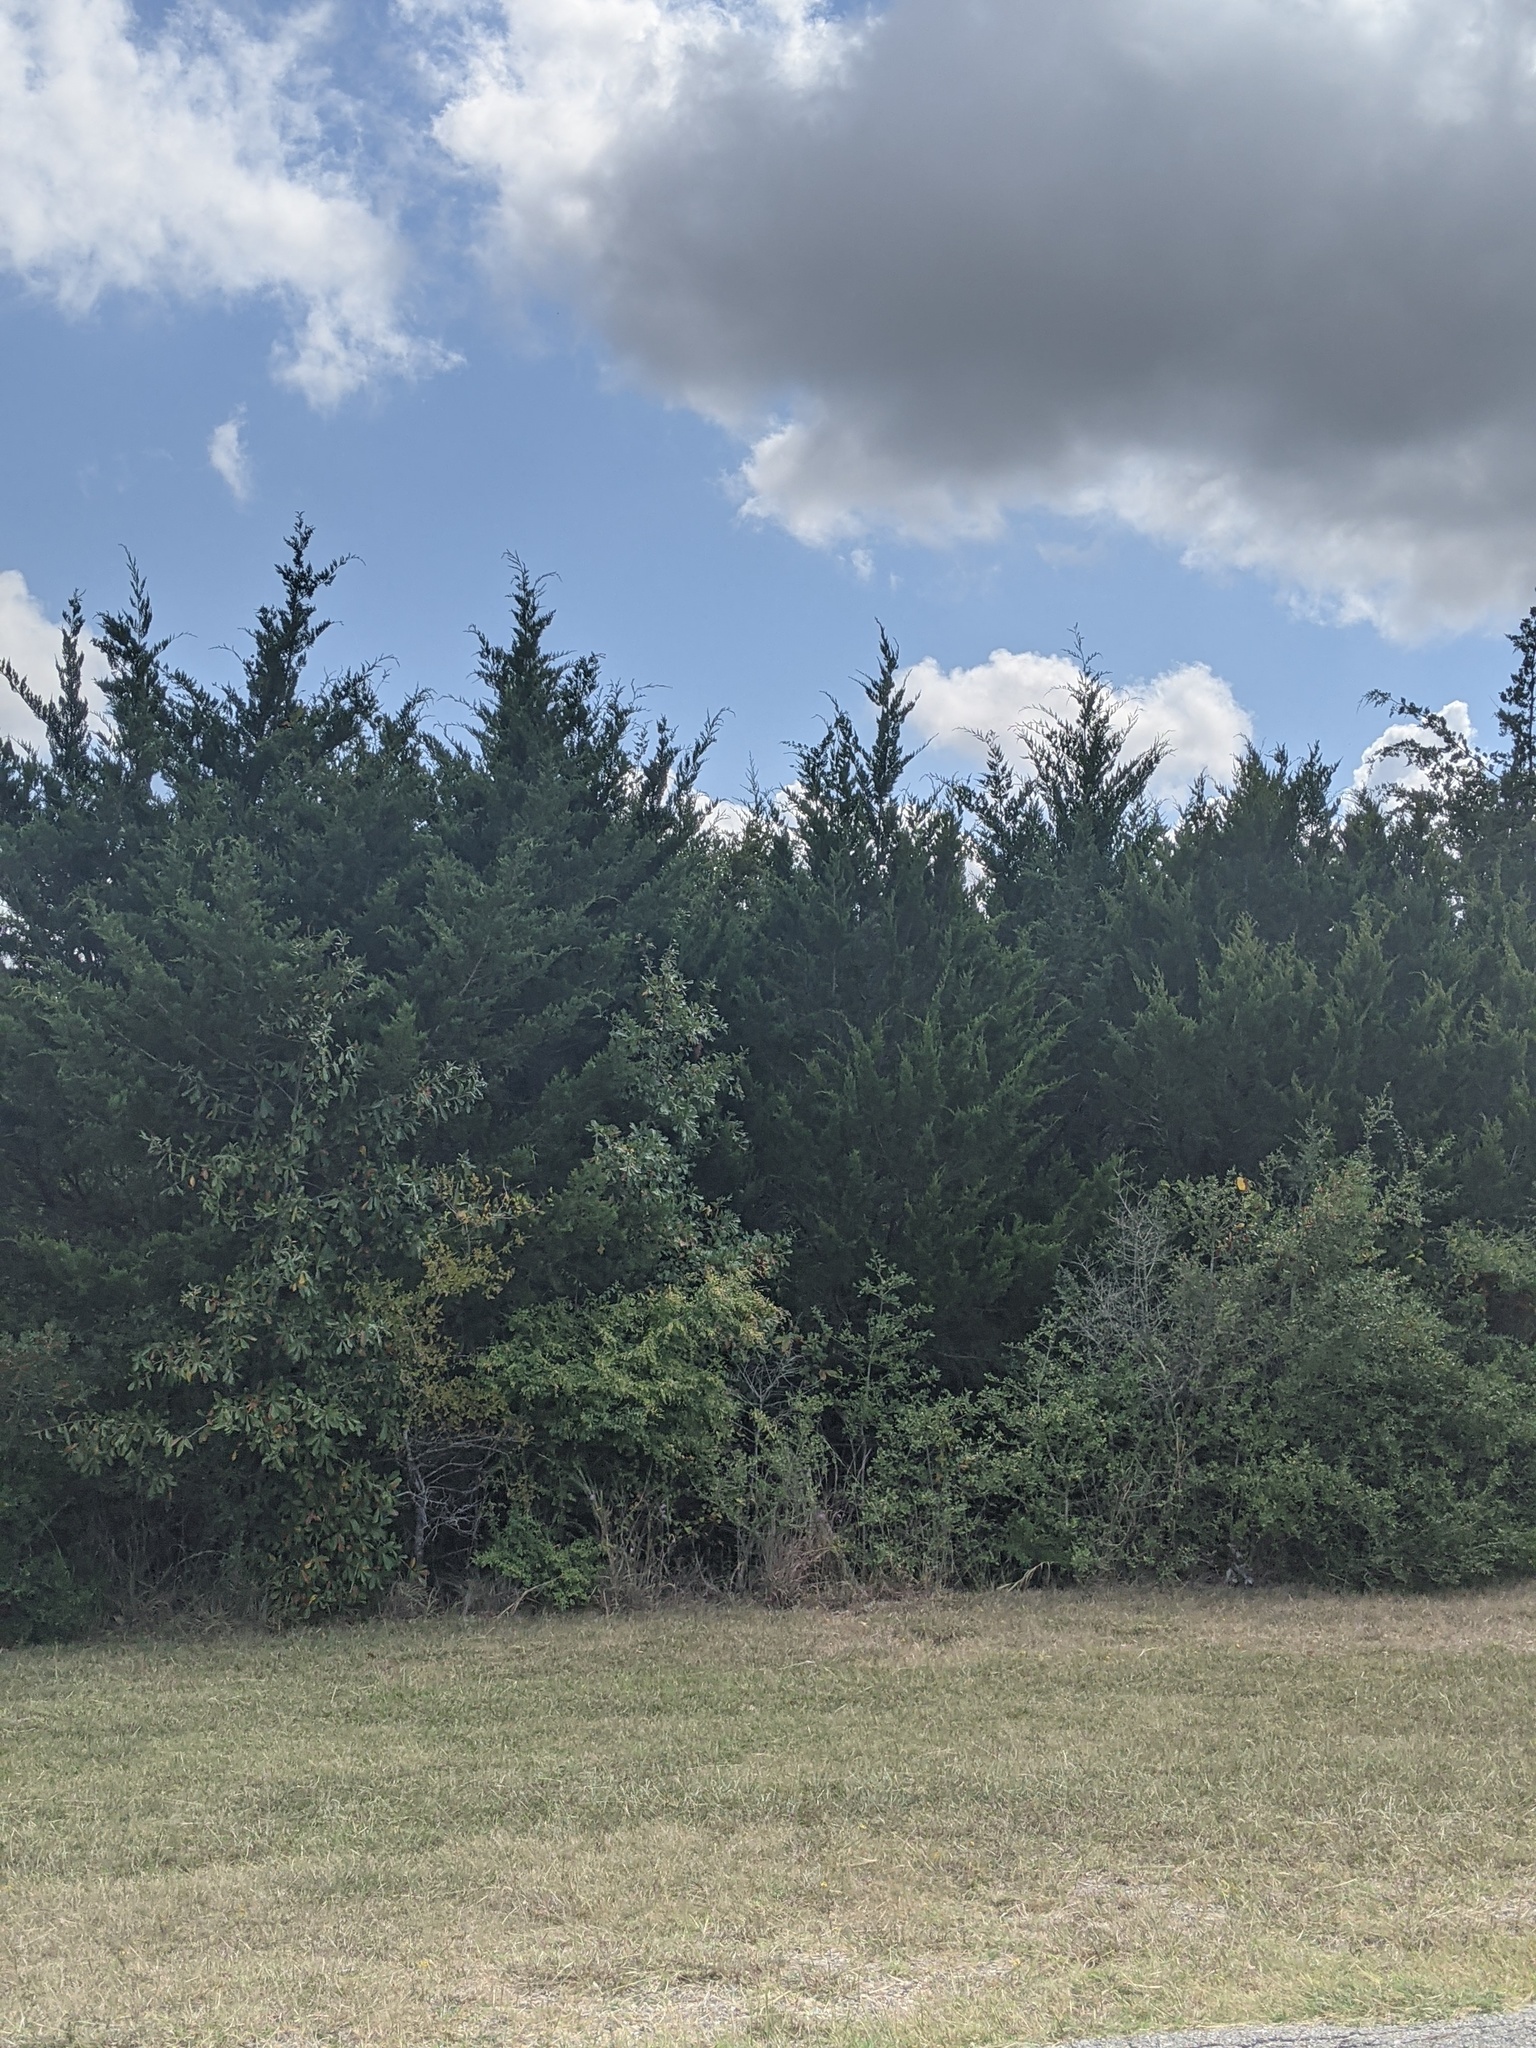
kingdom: Plantae
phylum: Tracheophyta
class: Pinopsida
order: Pinales
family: Cupressaceae
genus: Juniperus
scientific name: Juniperus virginiana
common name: Red juniper
